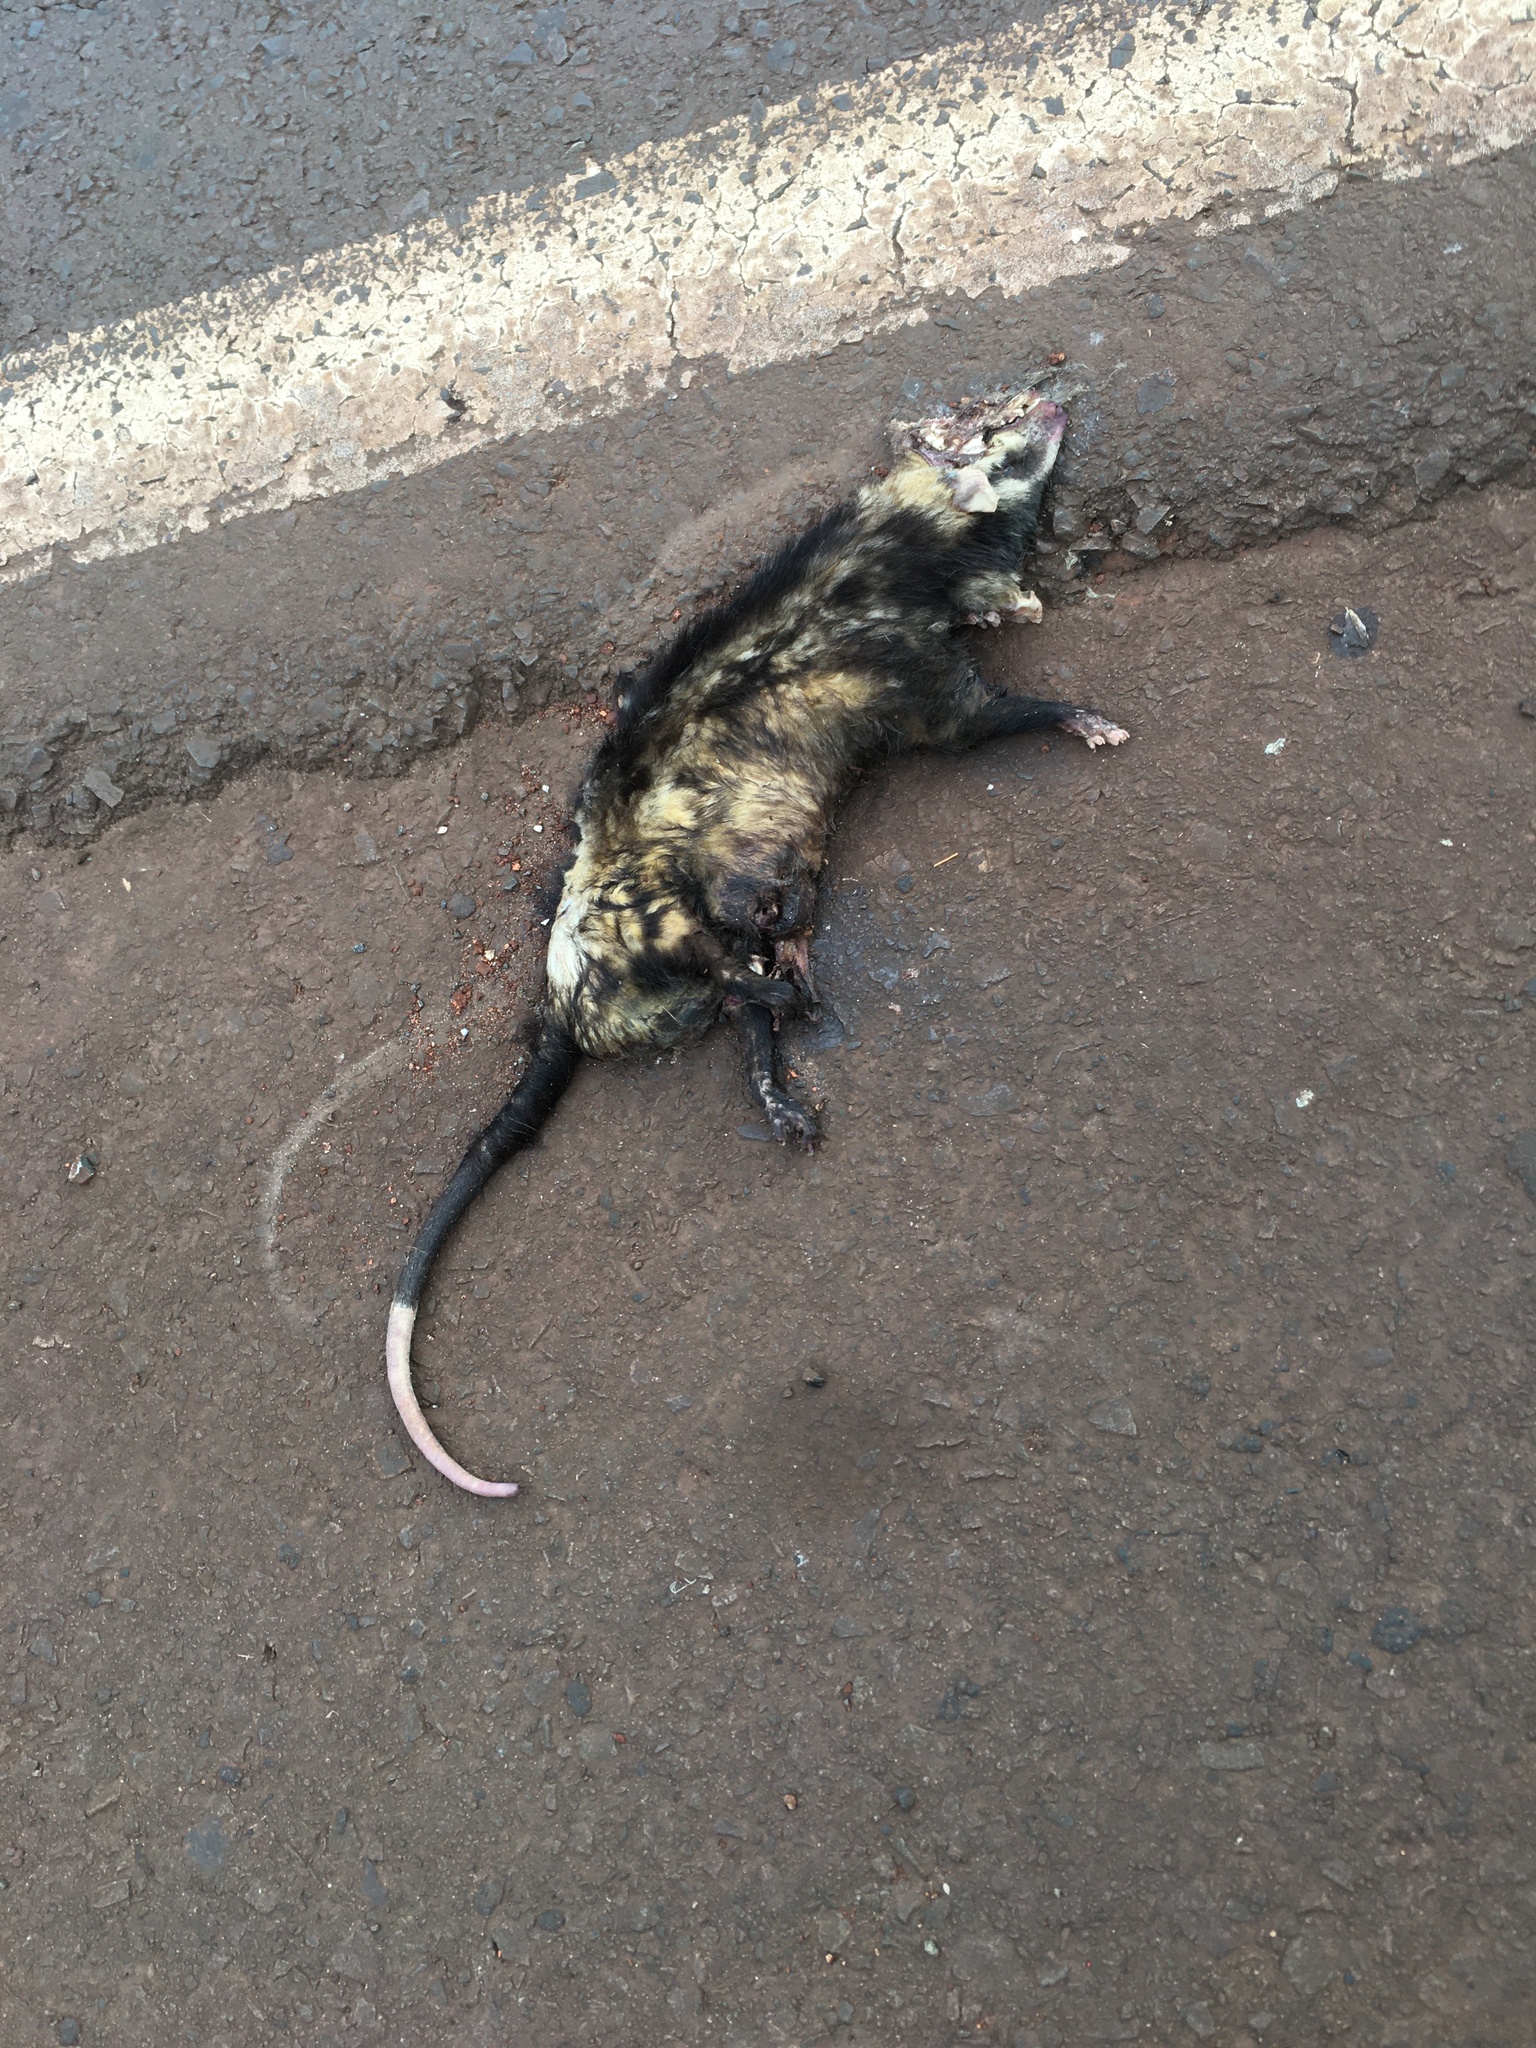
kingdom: Animalia
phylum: Chordata
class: Mammalia
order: Didelphimorphia
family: Didelphidae
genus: Didelphis
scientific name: Didelphis albiventris
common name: White-eared opossum
